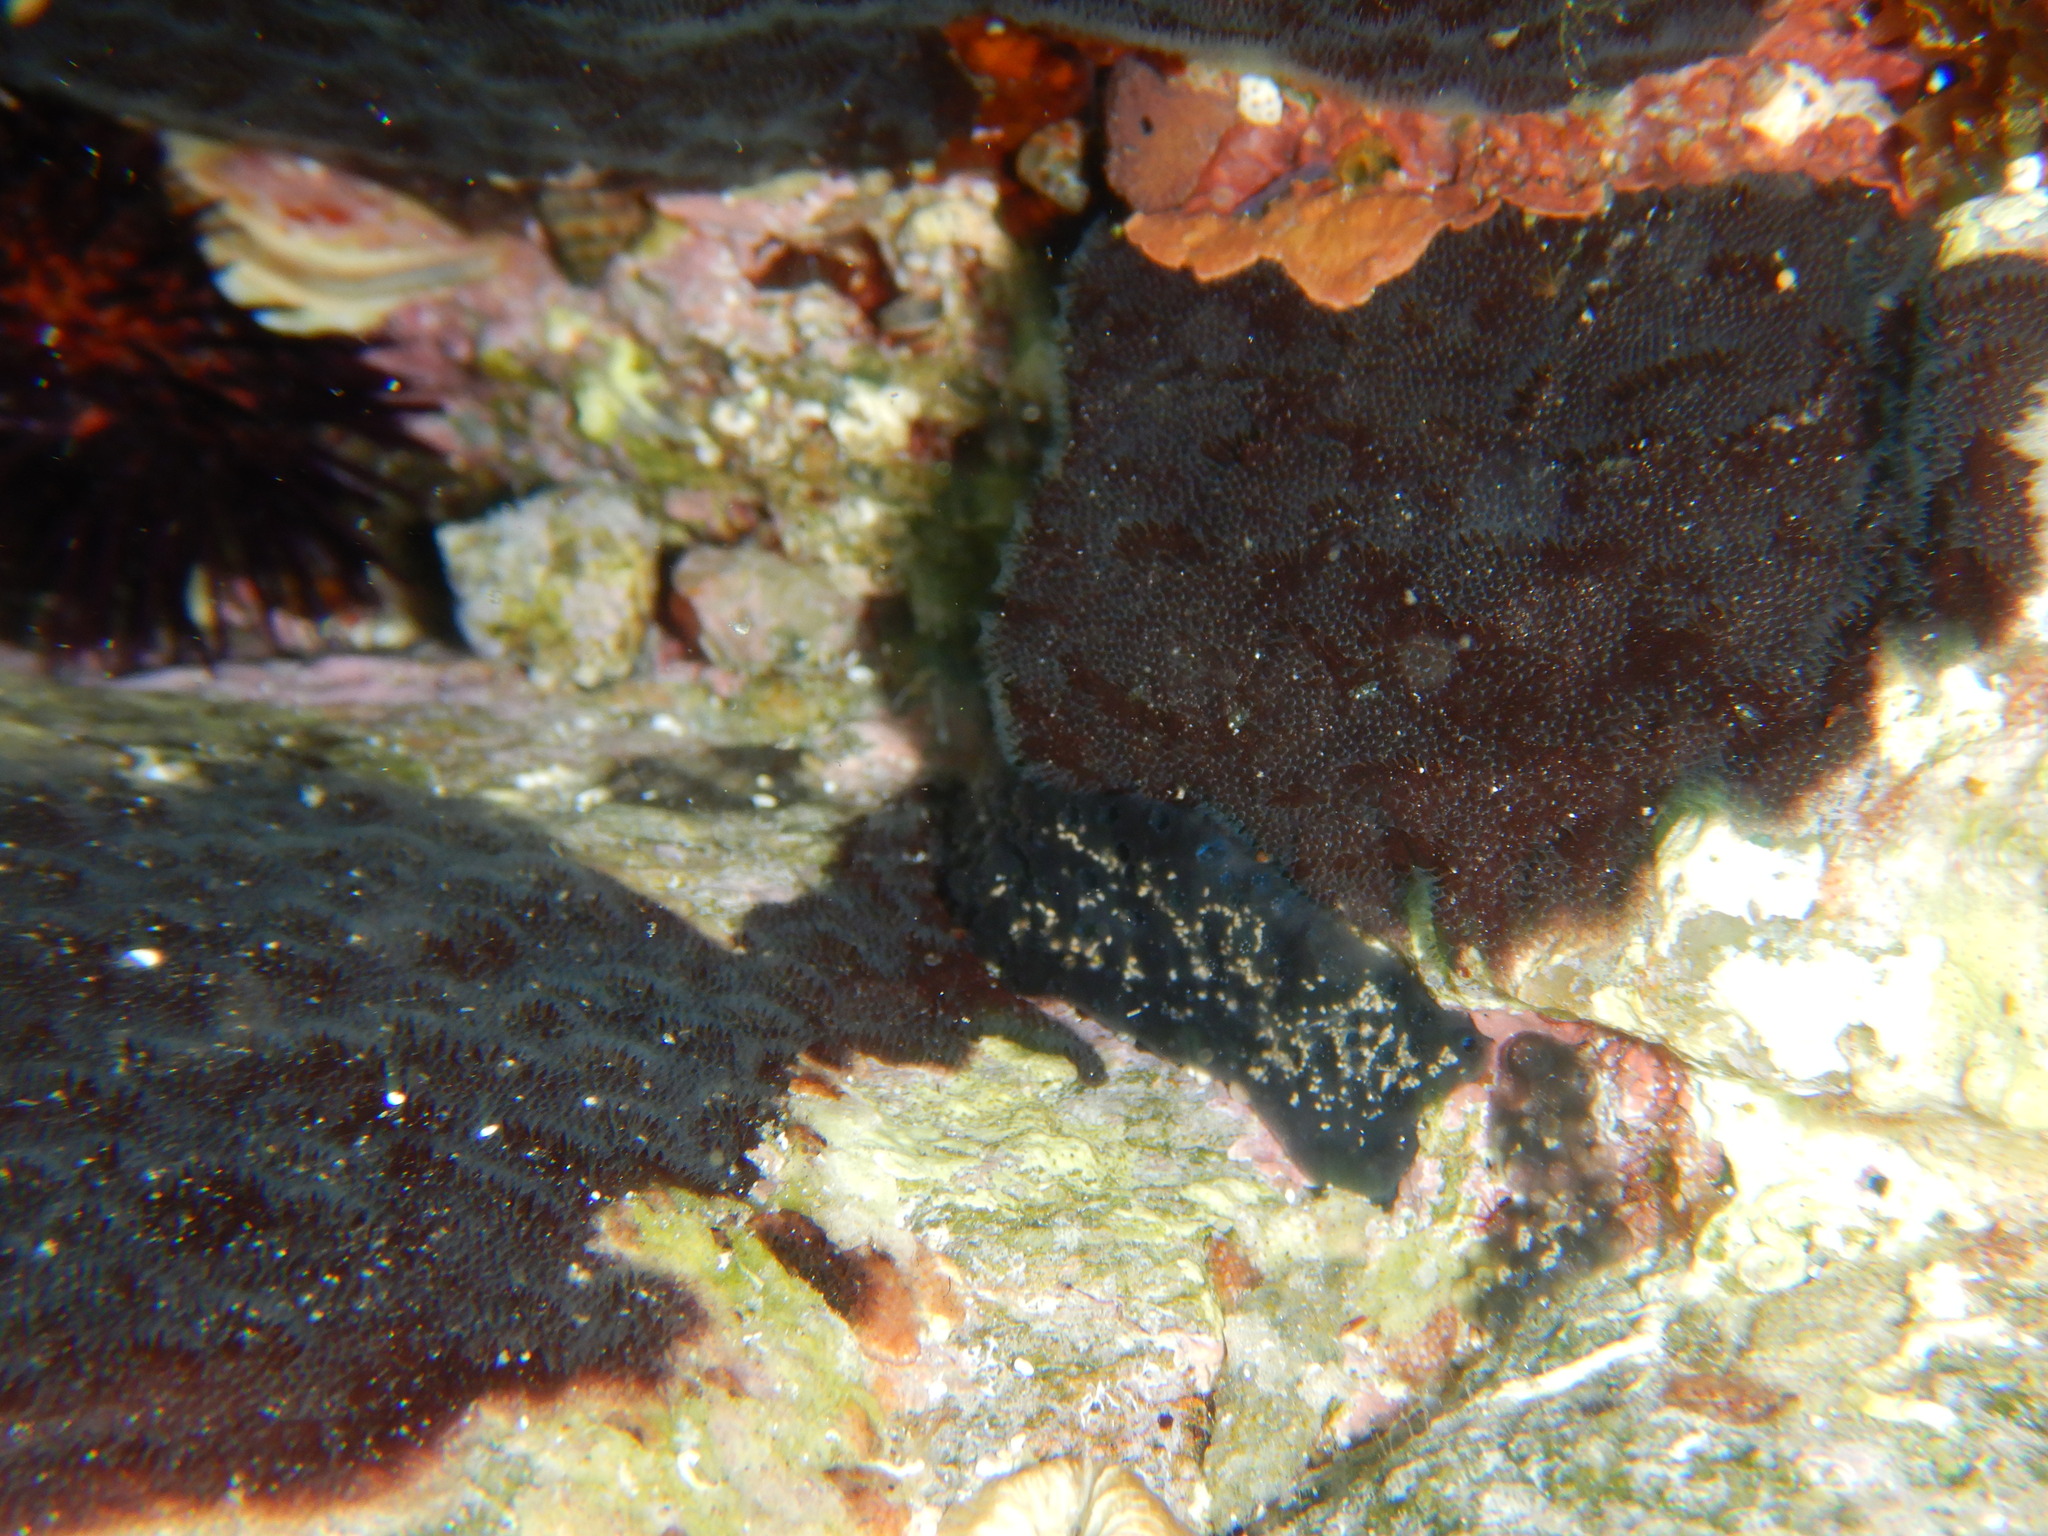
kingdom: Animalia
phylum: Bryozoa
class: Gymnolaemata
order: Cheilostomatida
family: Adeonidae
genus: Reptadeonella
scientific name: Reptadeonella violacea
